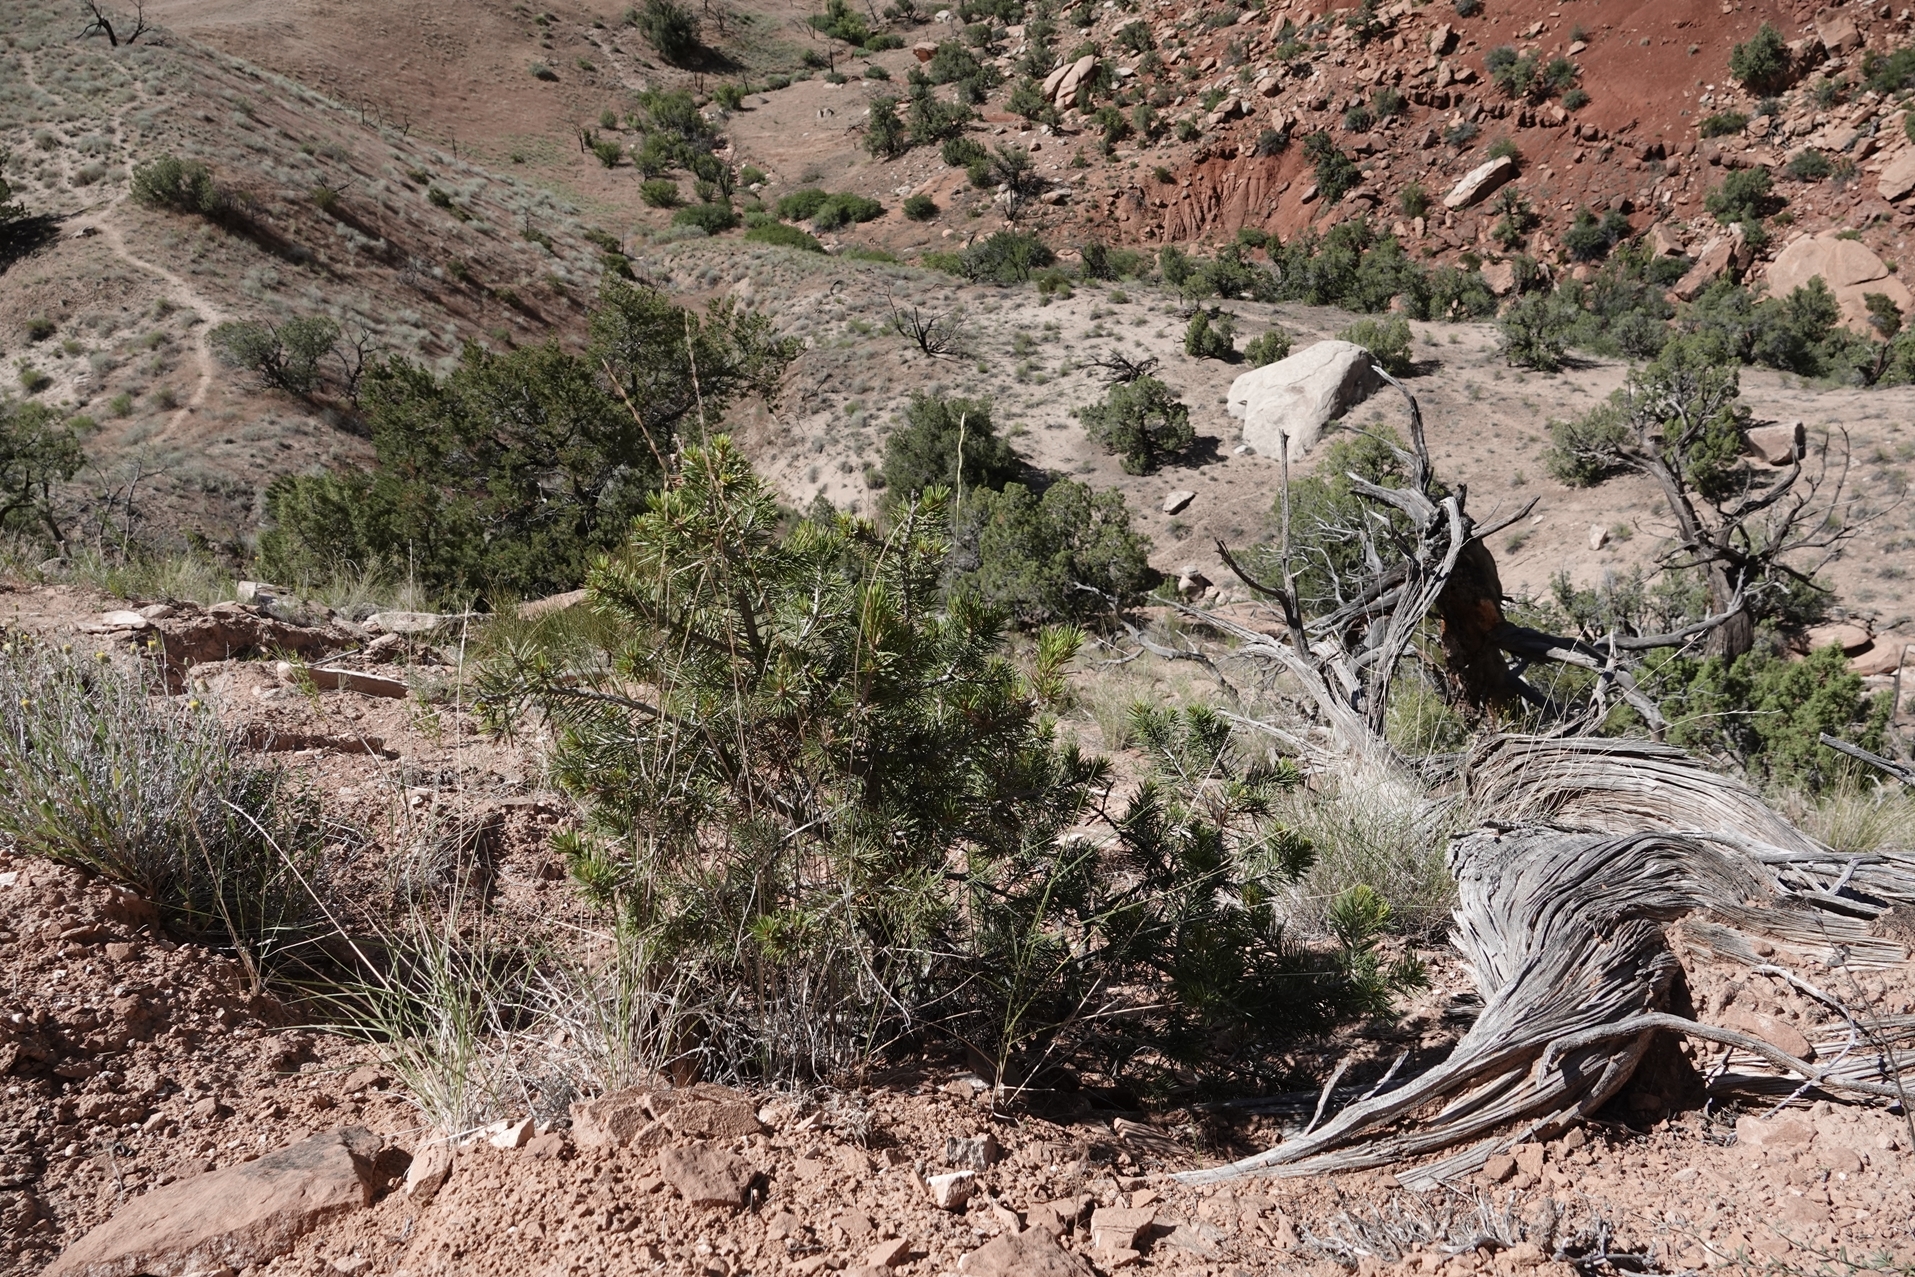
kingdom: Plantae
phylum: Tracheophyta
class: Pinopsida
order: Pinales
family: Pinaceae
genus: Pinus
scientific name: Pinus edulis
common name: Colorado pinyon
